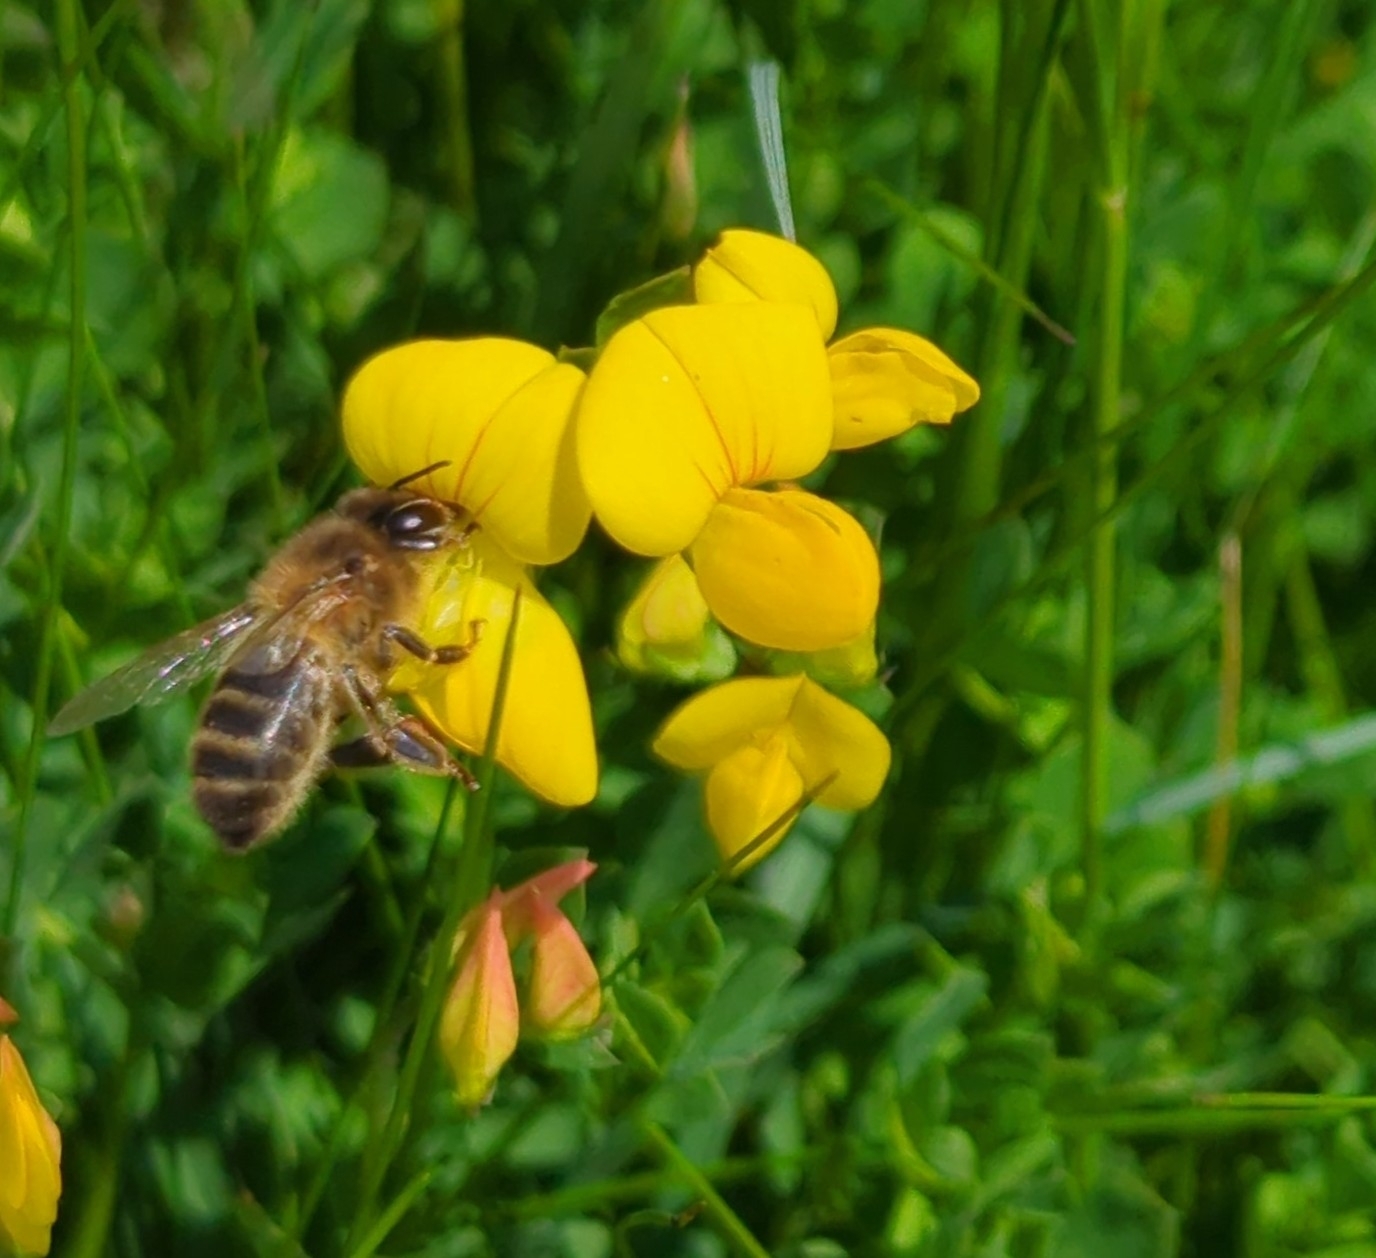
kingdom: Animalia
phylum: Arthropoda
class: Insecta
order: Hymenoptera
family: Apidae
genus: Apis
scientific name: Apis mellifera
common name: Honey bee
